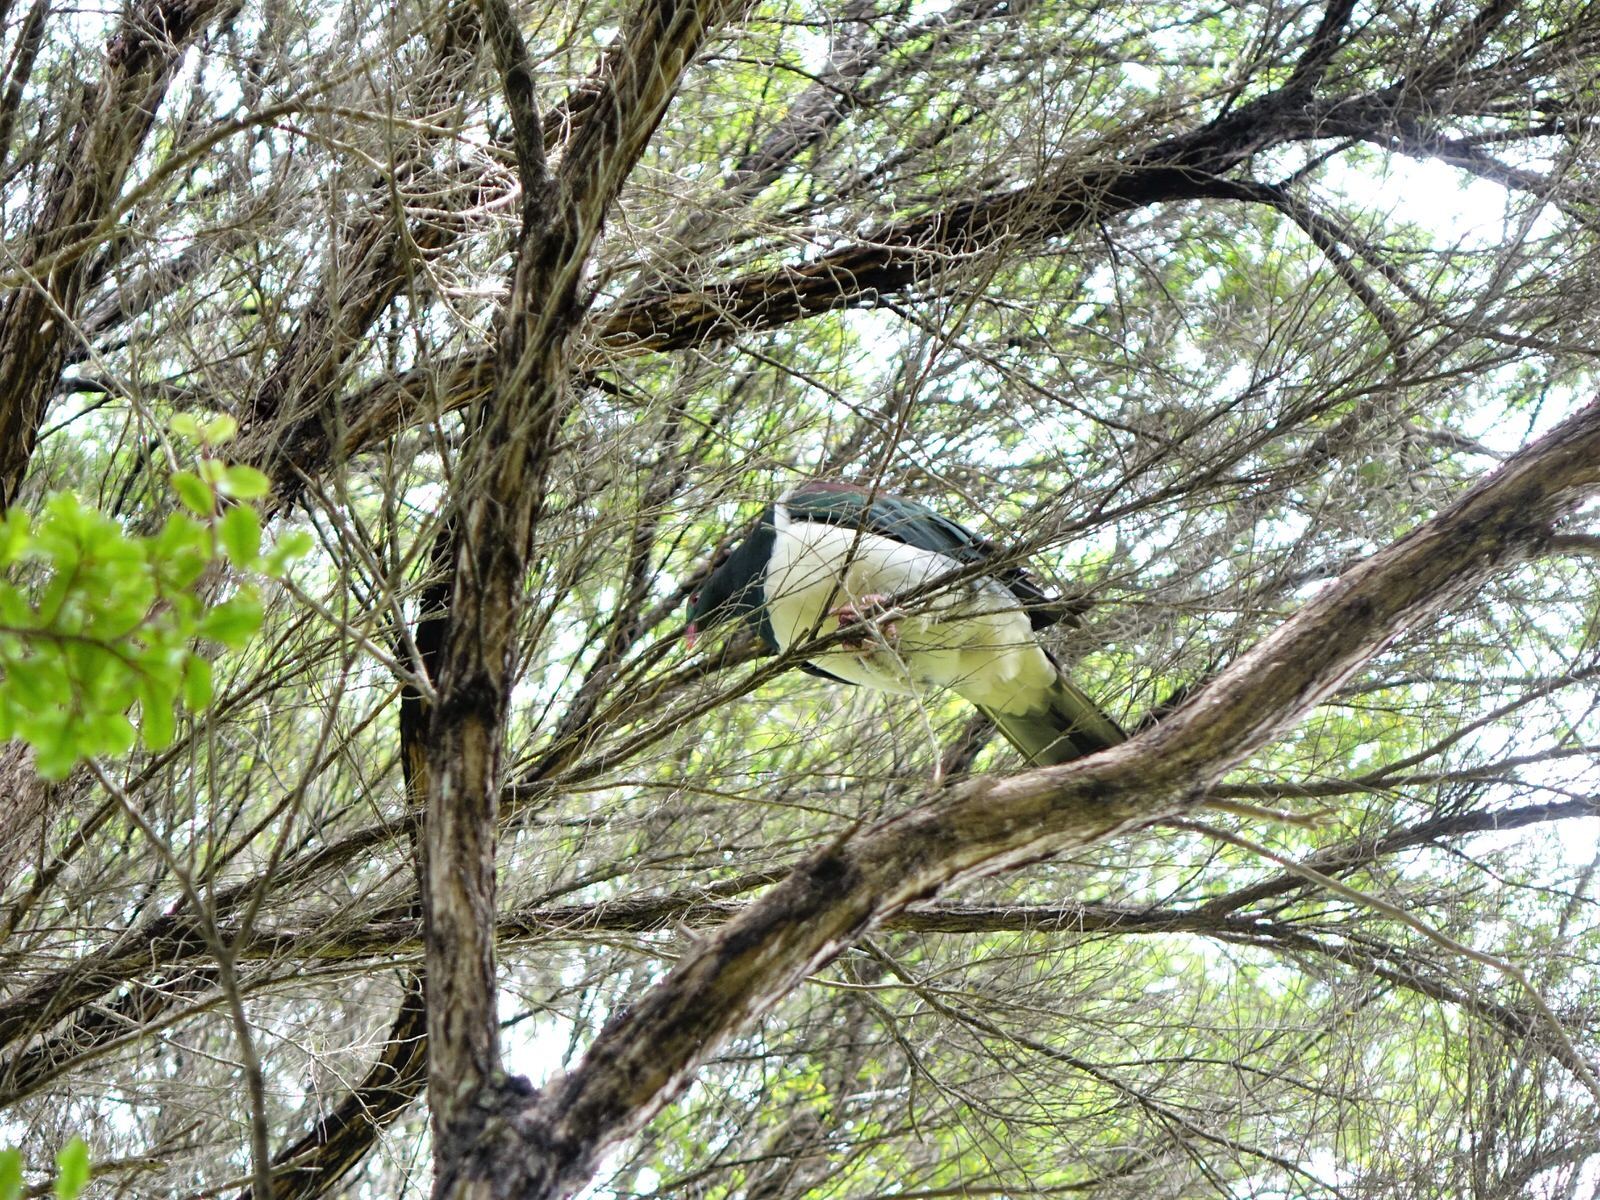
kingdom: Animalia
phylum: Chordata
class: Aves
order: Columbiformes
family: Columbidae
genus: Hemiphaga
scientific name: Hemiphaga novaeseelandiae
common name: New zealand pigeon
